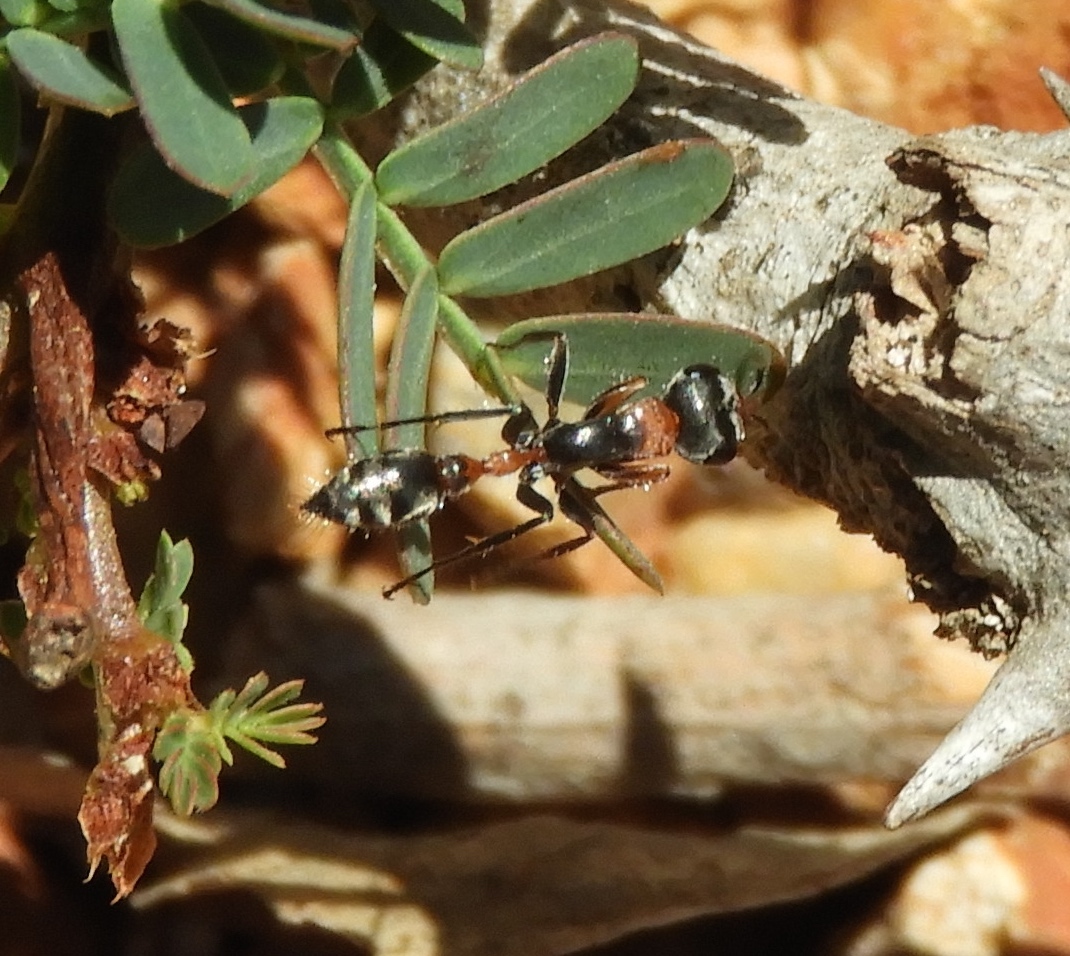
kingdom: Animalia
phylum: Arthropoda
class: Insecta
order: Hymenoptera
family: Formicidae
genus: Pseudomyrmex
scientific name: Pseudomyrmex gracilis
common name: Graceful twig ant
